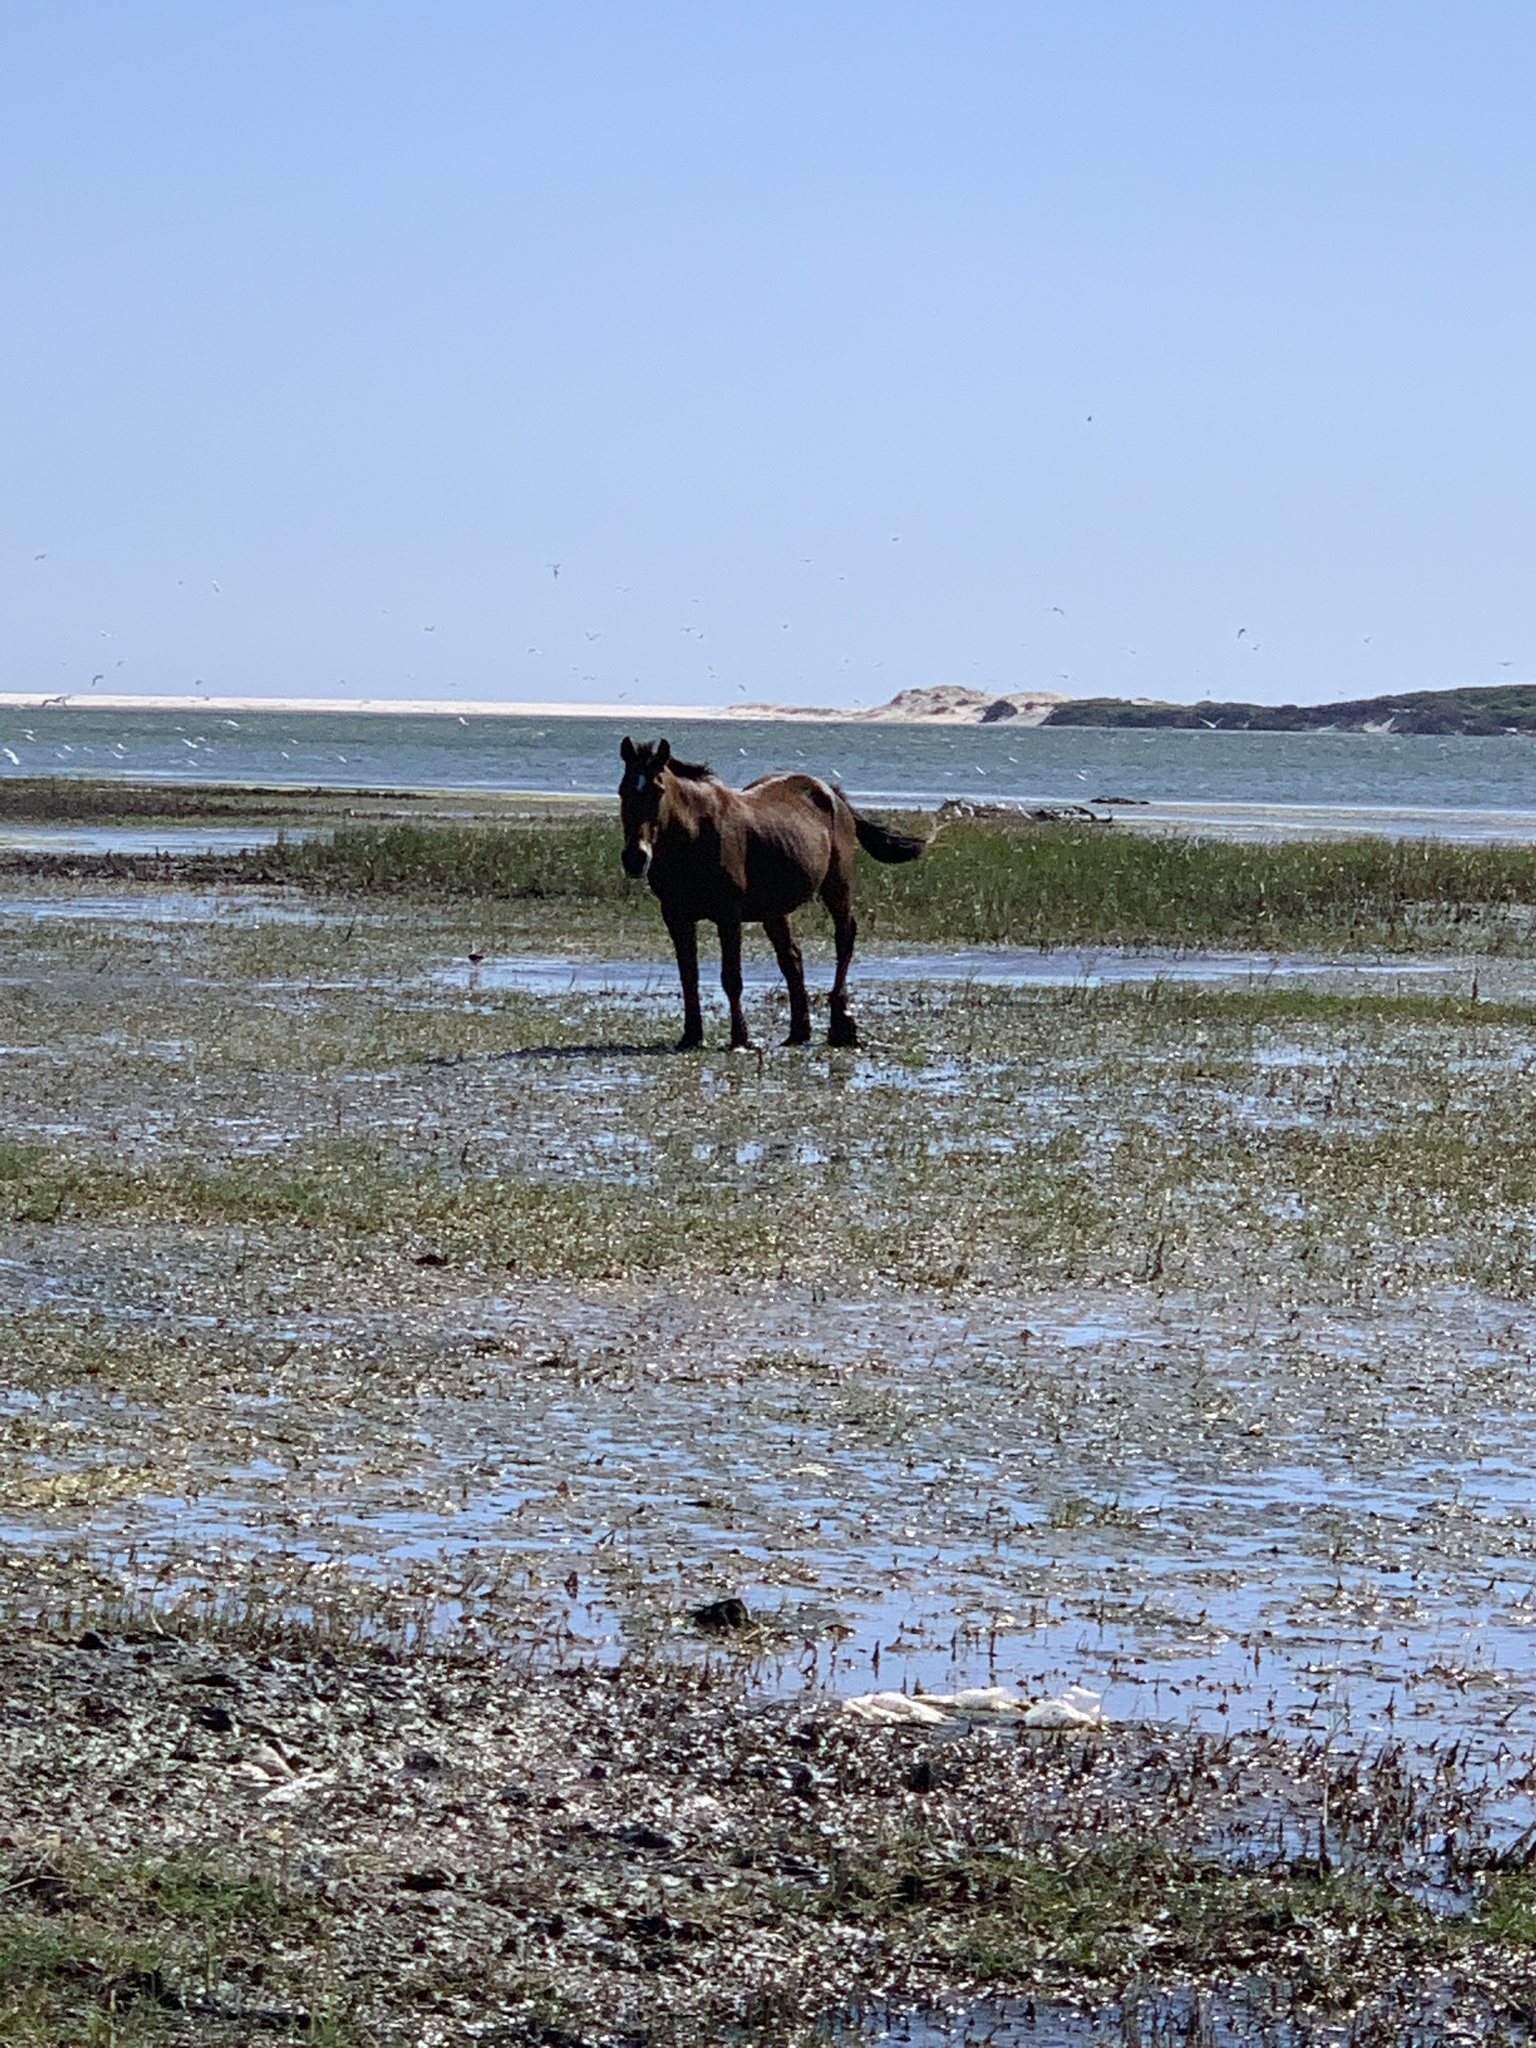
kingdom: Animalia
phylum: Chordata
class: Mammalia
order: Perissodactyla
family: Equidae
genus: Equus
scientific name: Equus caballus
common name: Horse
